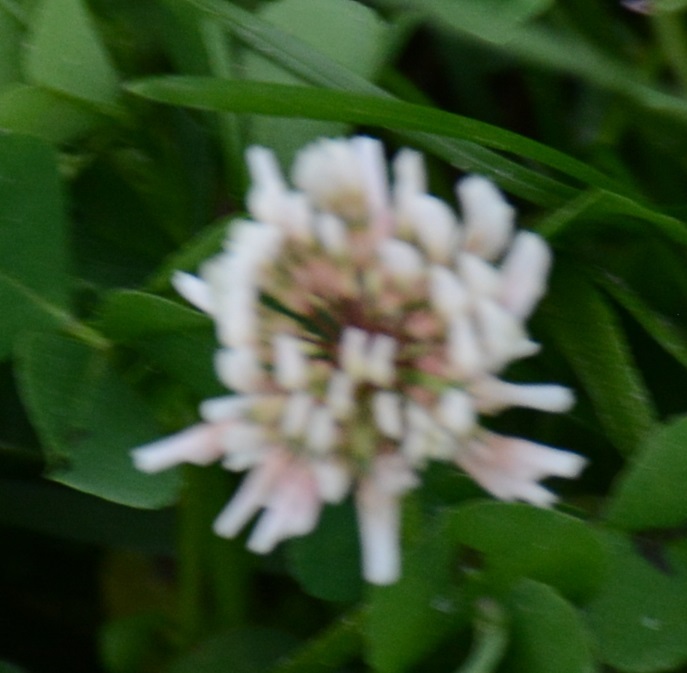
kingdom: Plantae
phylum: Tracheophyta
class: Magnoliopsida
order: Fabales
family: Fabaceae
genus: Trifolium
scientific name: Trifolium repens
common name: White clover
